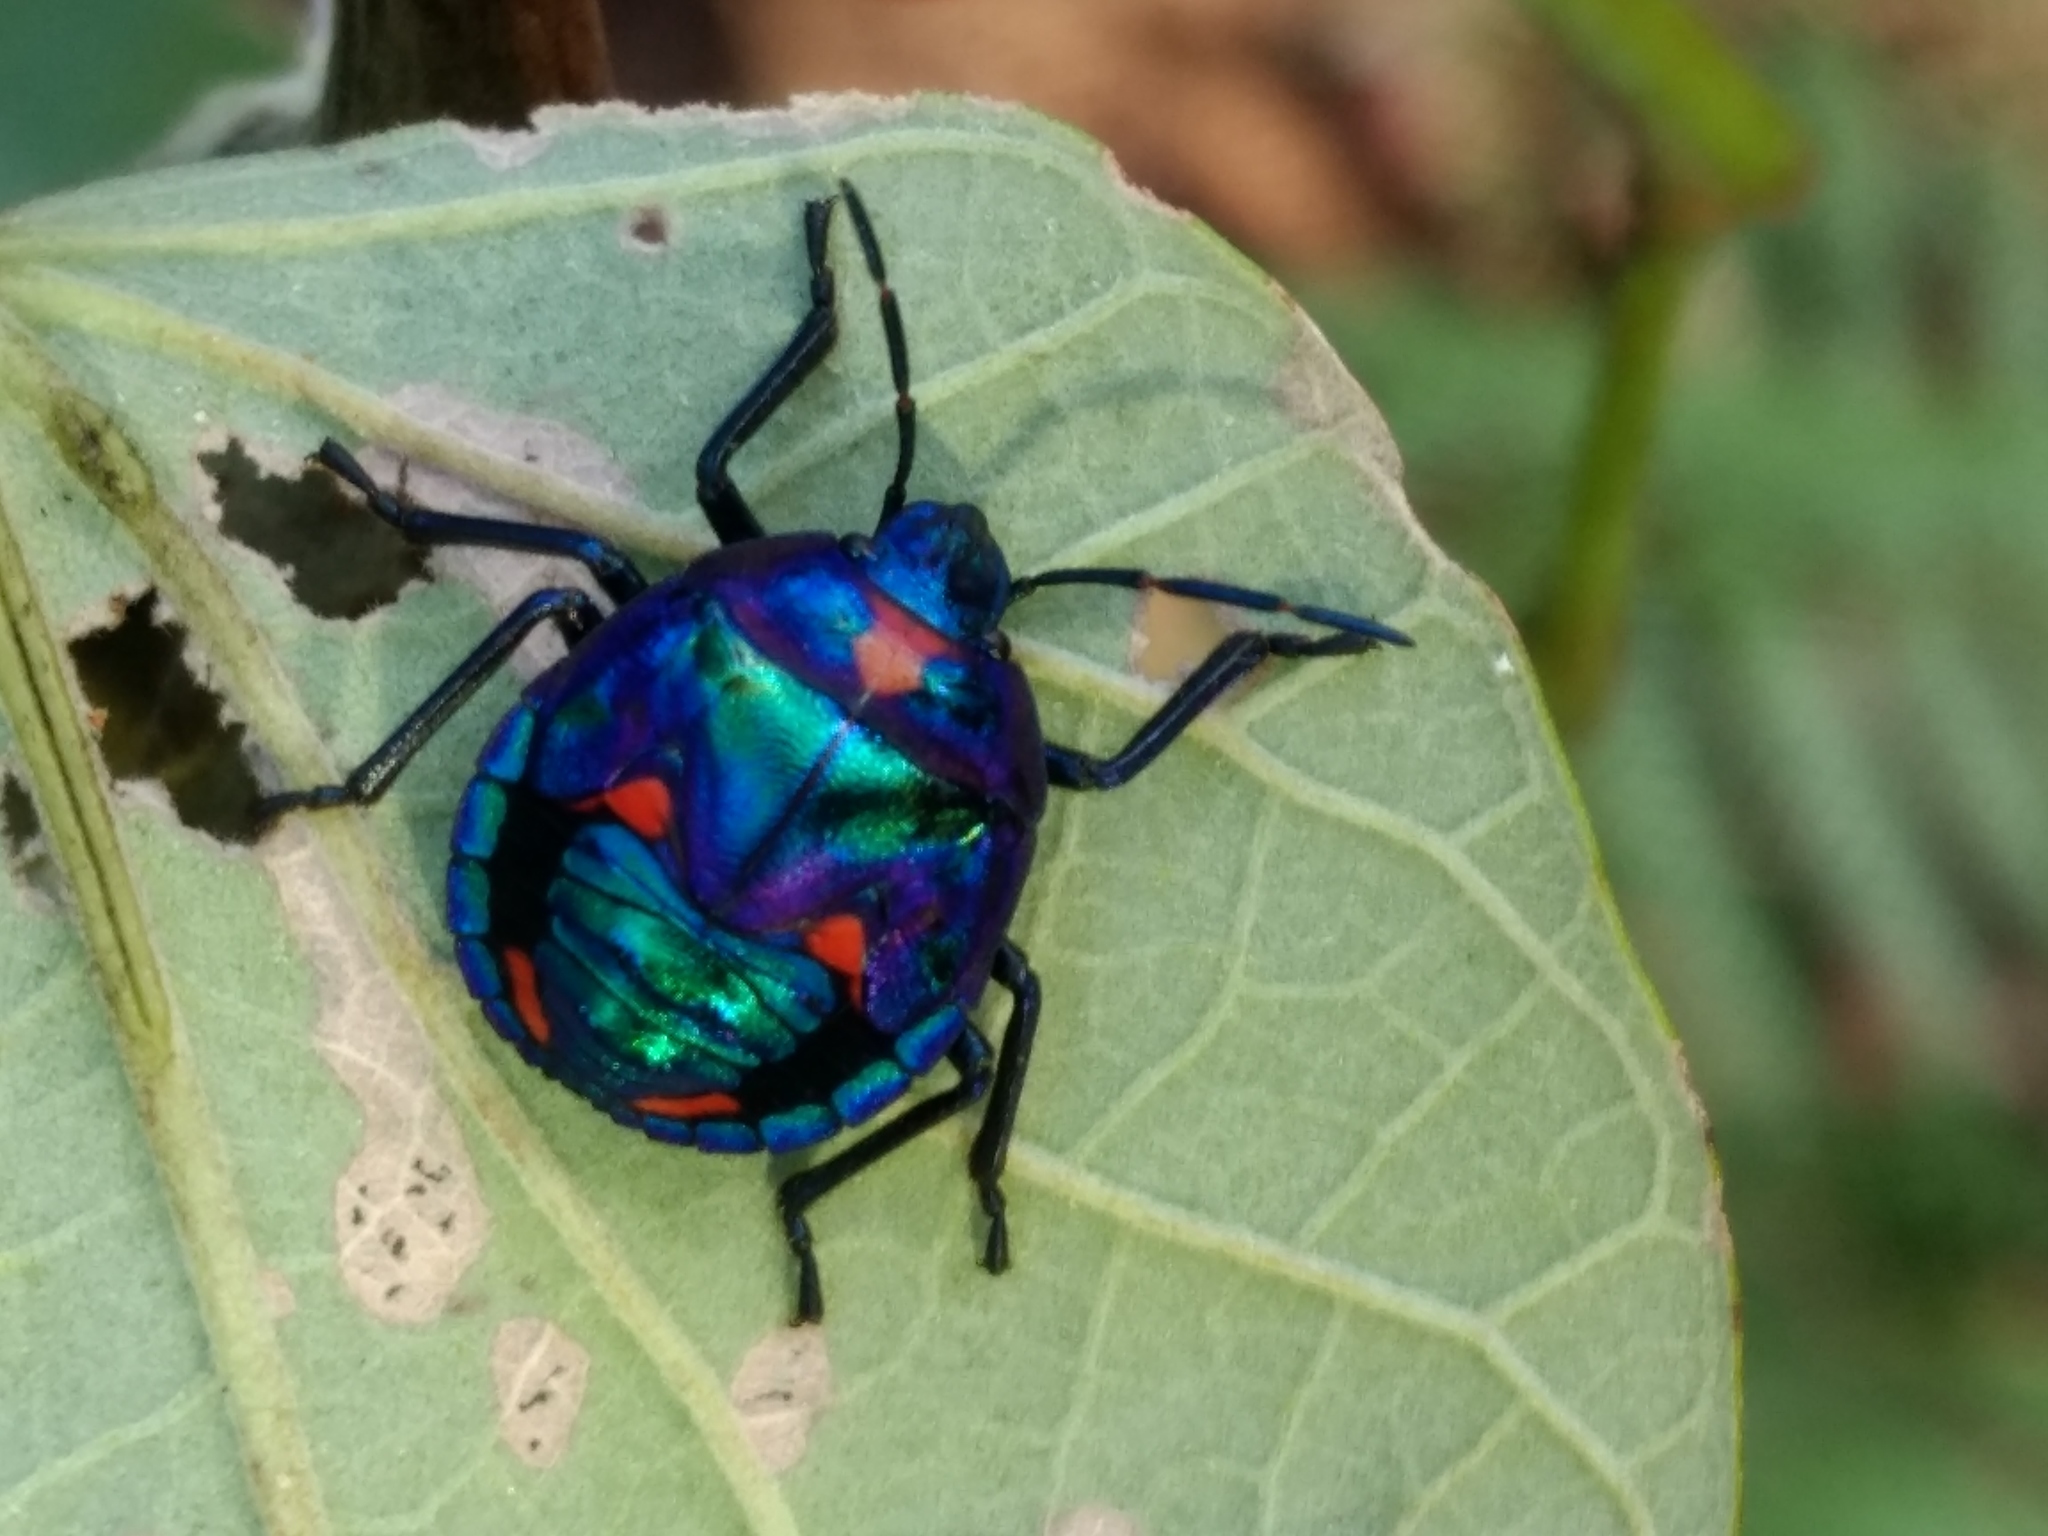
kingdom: Animalia
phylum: Arthropoda
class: Insecta
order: Hemiptera
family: Scutelleridae
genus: Tectocoris
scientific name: Tectocoris diophthalmus
